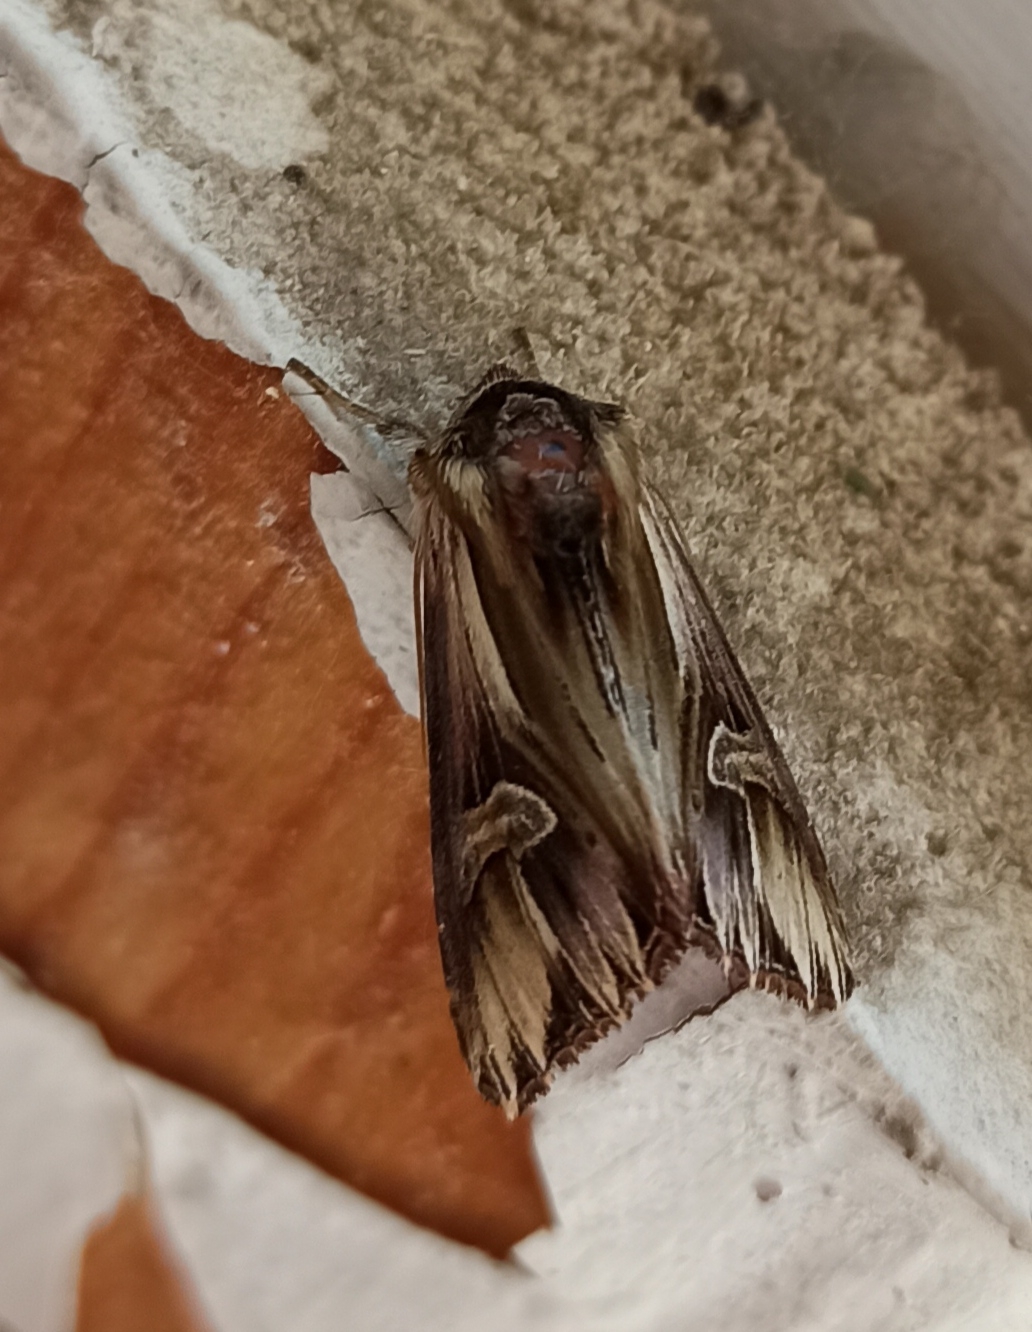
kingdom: Animalia
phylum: Arthropoda
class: Insecta
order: Lepidoptera
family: Noctuidae
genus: Actinotia
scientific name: Actinotia polyodon
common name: Purple cloud
